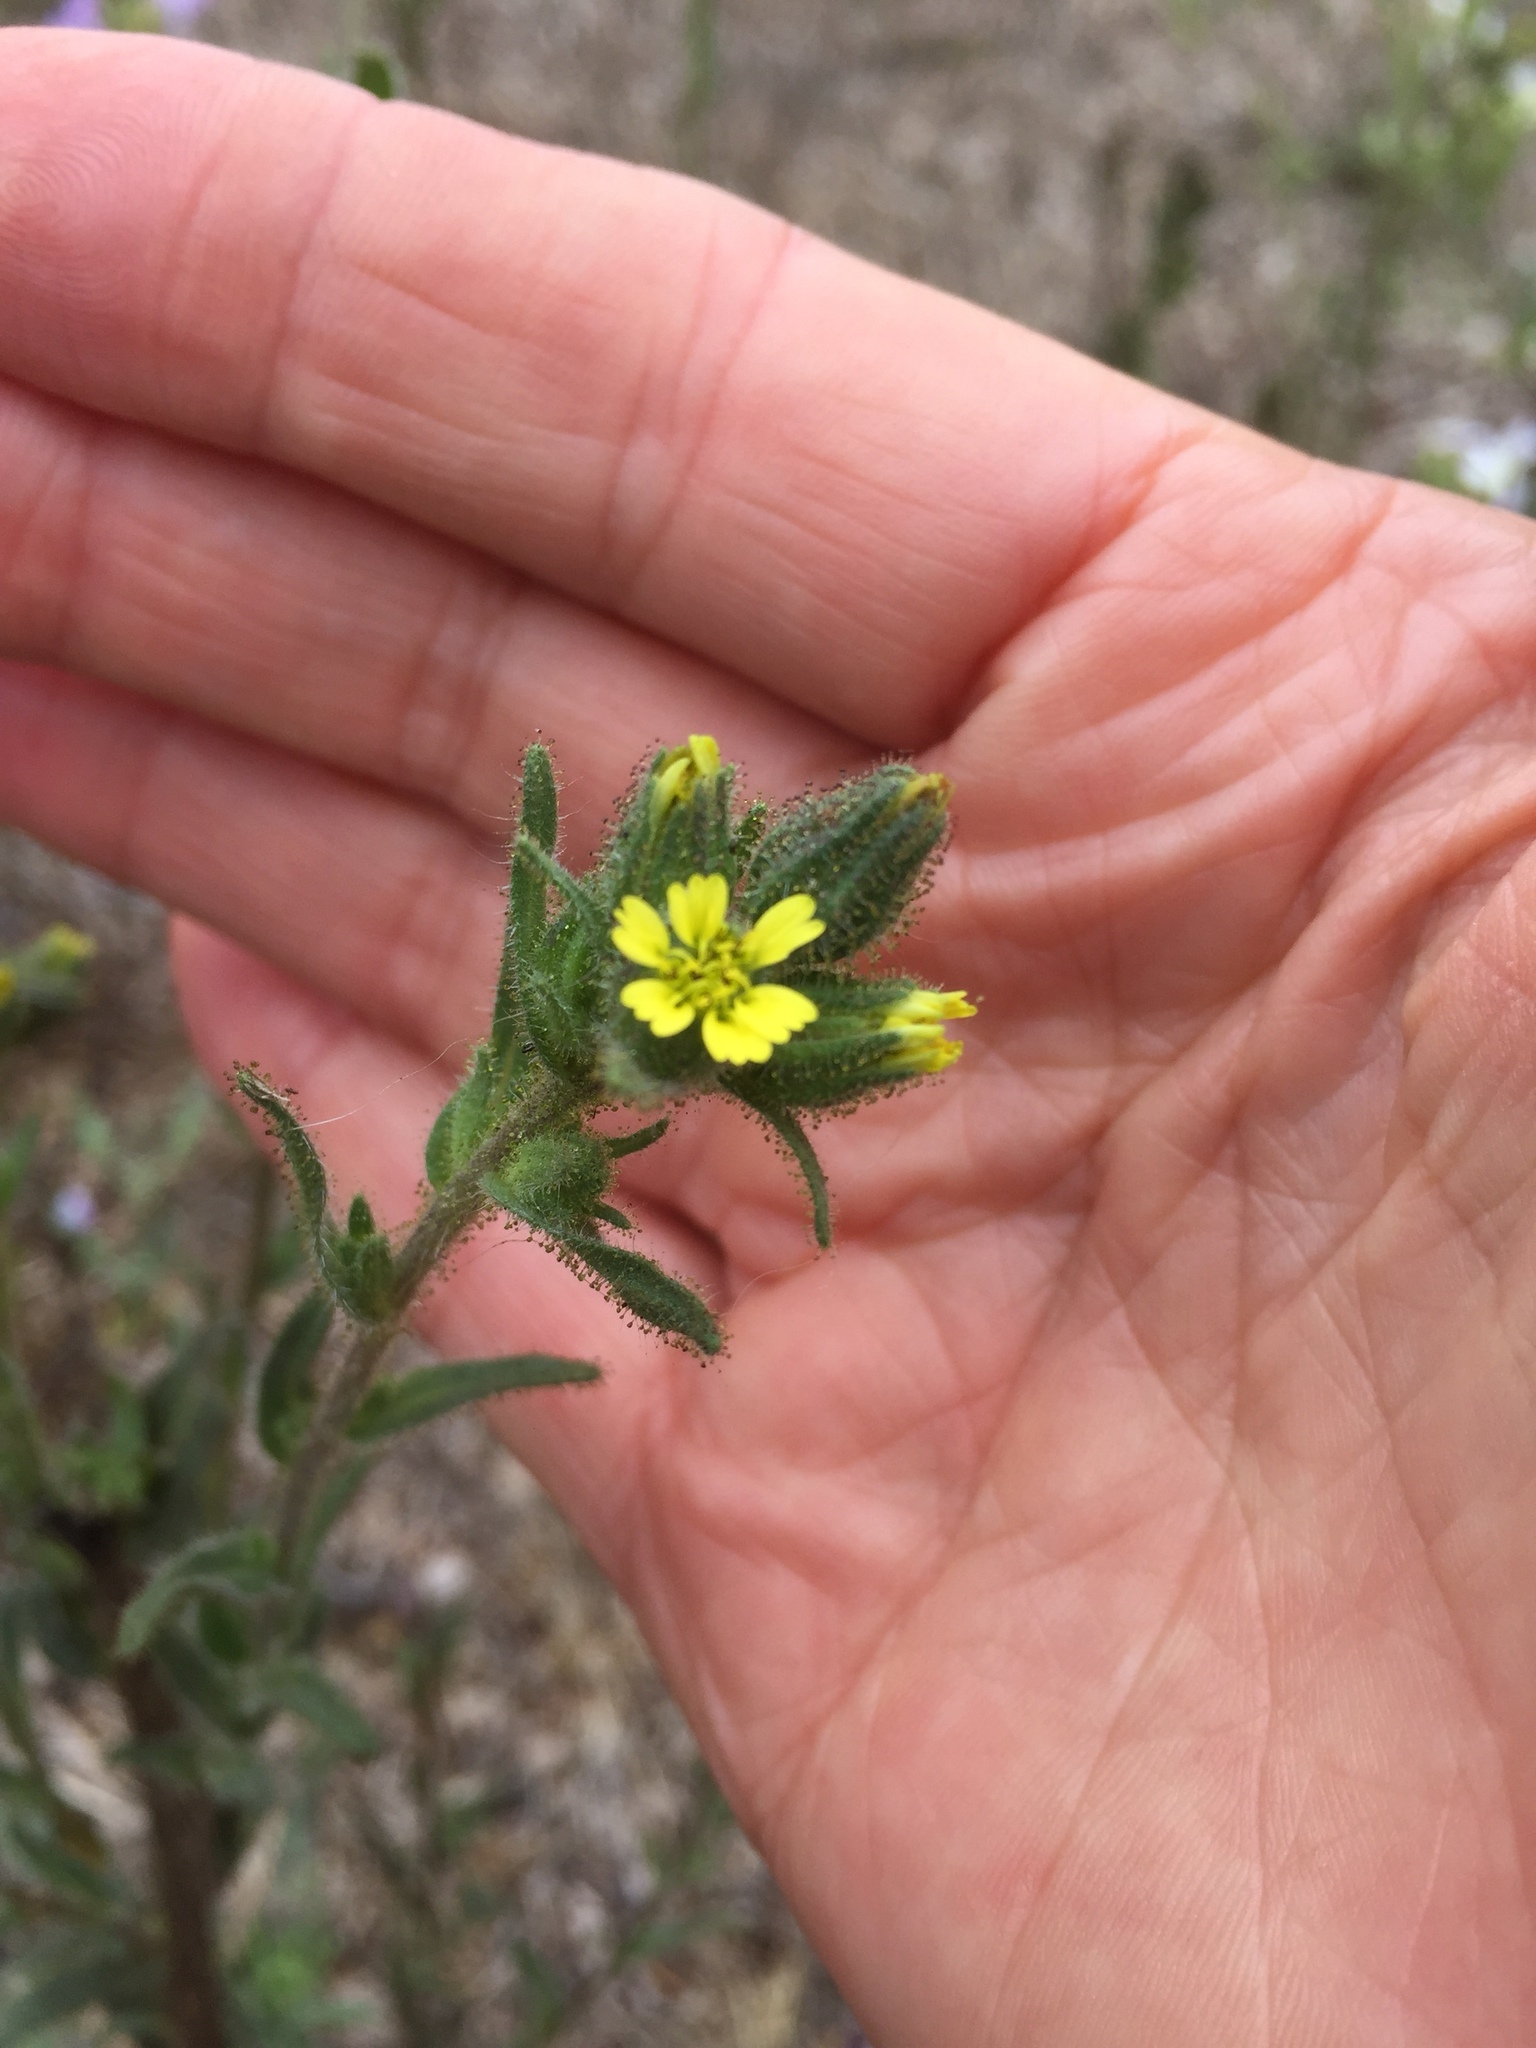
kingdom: Plantae
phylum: Tracheophyta
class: Magnoliopsida
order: Asterales
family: Asteraceae
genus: Madia
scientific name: Madia sativa
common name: Coast tarweed
